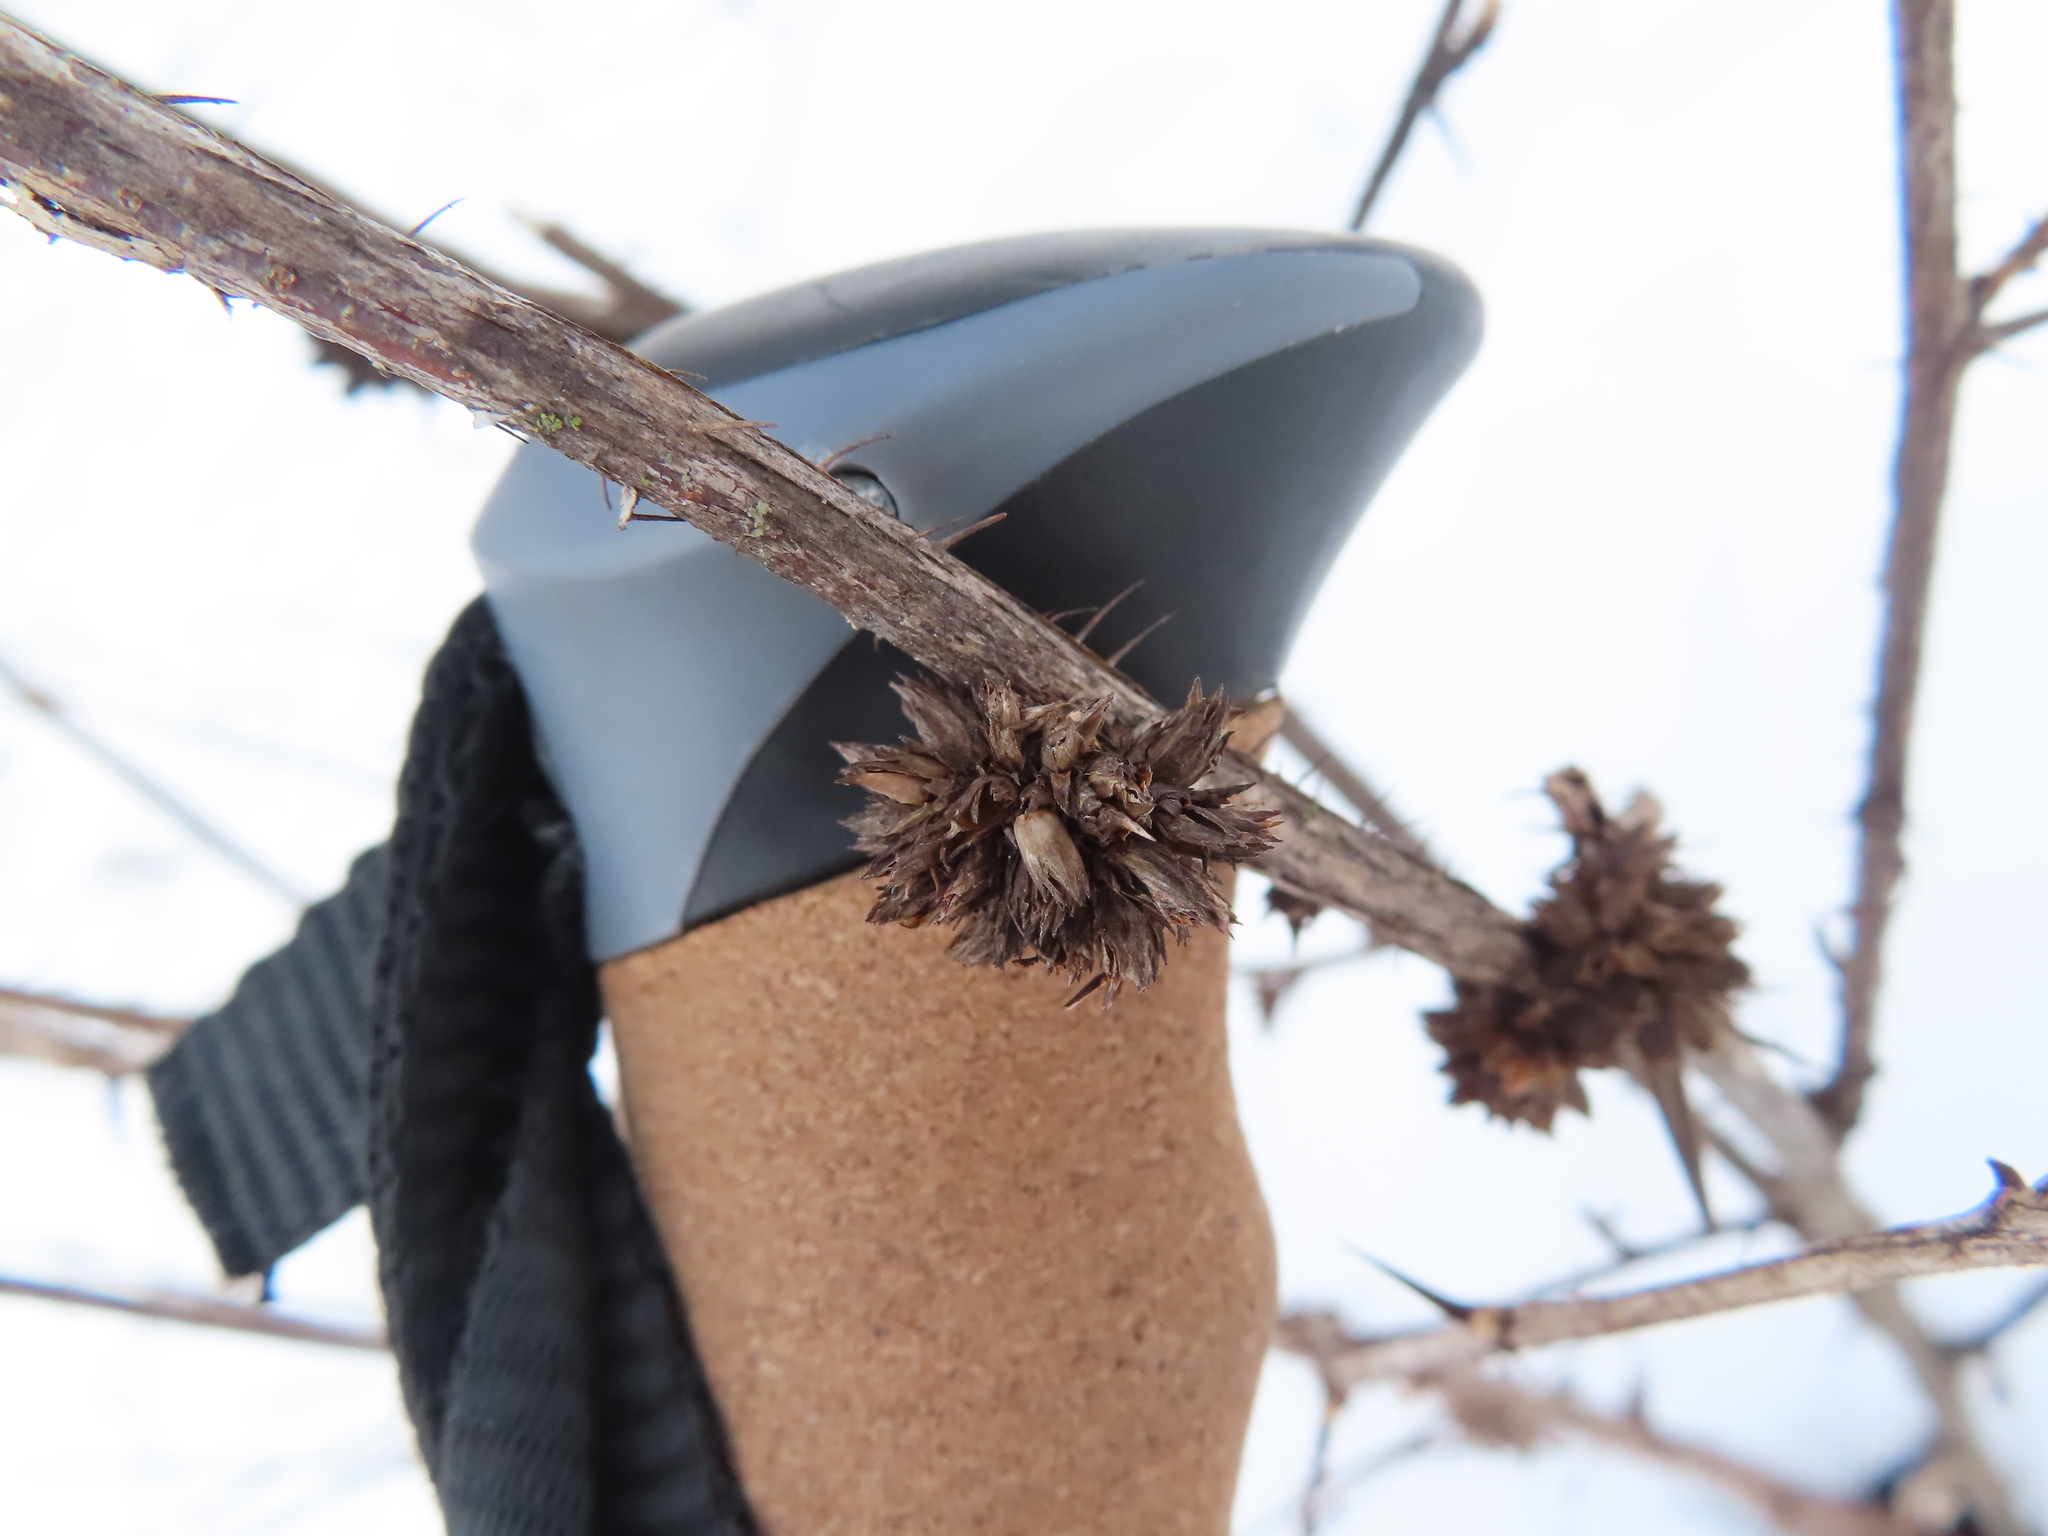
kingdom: Animalia
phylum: Arthropoda
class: Insecta
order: Diptera
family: Cecidomyiidae
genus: Rhopalomyia
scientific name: Rhopalomyia grossulariae
